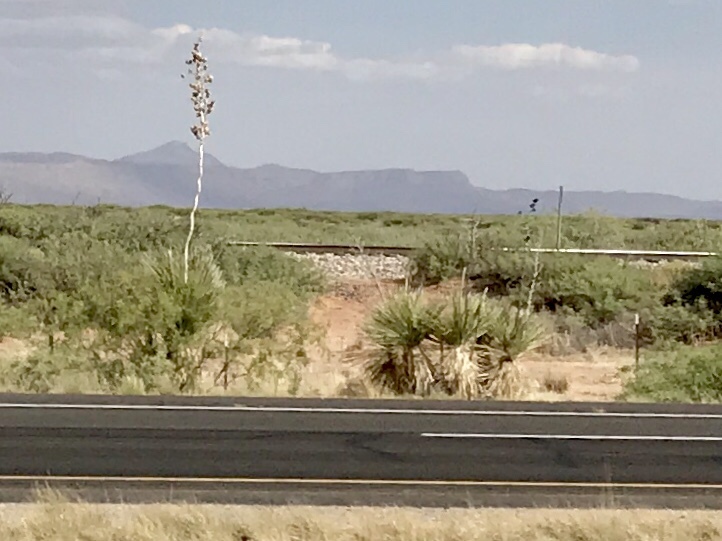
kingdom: Plantae
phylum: Tracheophyta
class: Liliopsida
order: Asparagales
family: Asparagaceae
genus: Yucca
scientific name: Yucca elata
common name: Palmella
